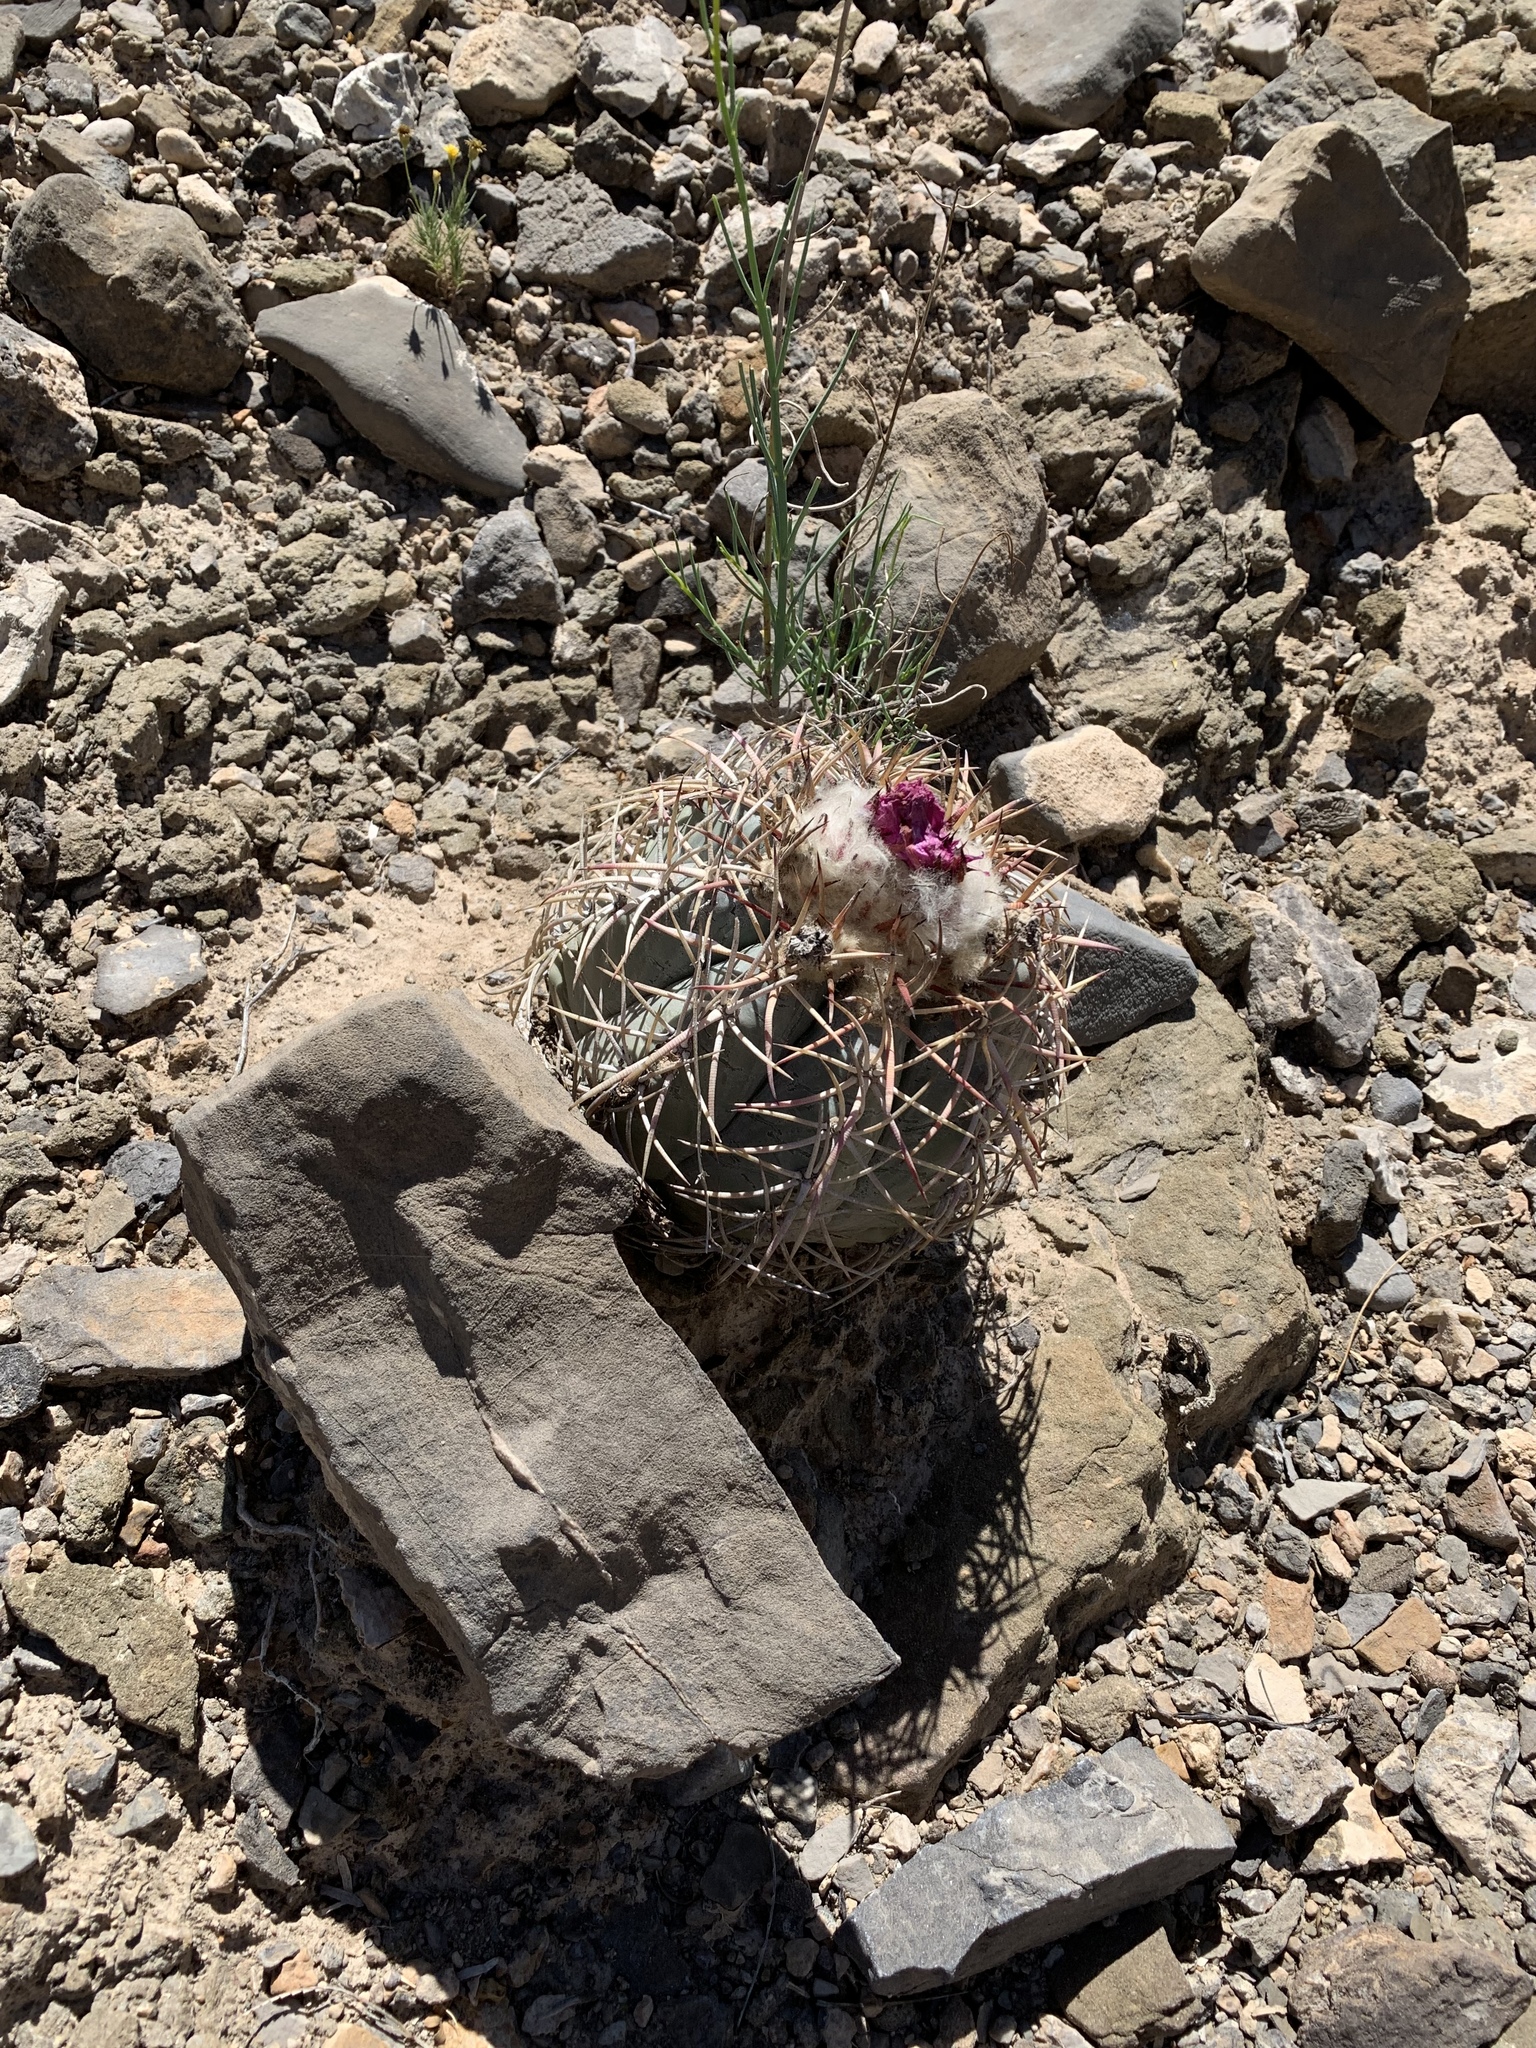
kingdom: Plantae
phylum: Tracheophyta
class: Magnoliopsida
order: Caryophyllales
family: Cactaceae
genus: Echinocactus
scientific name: Echinocactus horizonthalonius
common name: Devilshead
